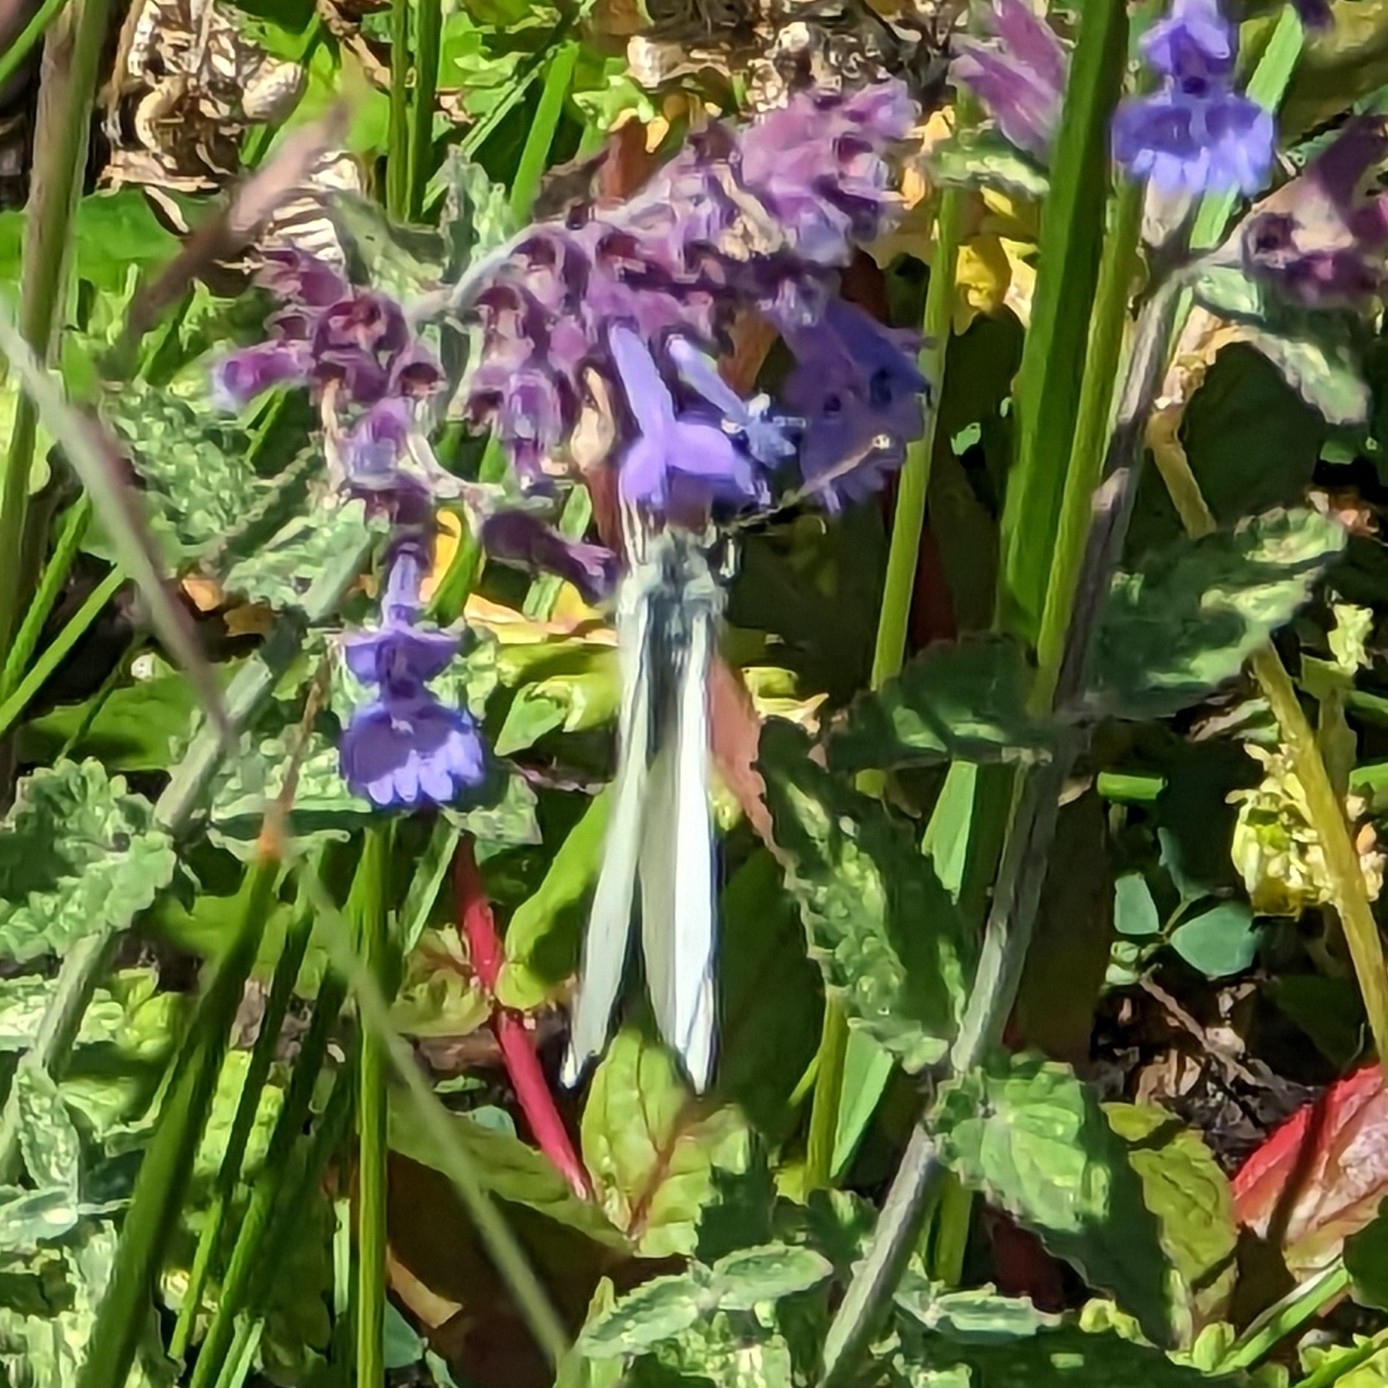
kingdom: Animalia
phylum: Arthropoda
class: Insecta
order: Lepidoptera
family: Pieridae
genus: Pieris
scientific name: Pieris rapae
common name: Small white
